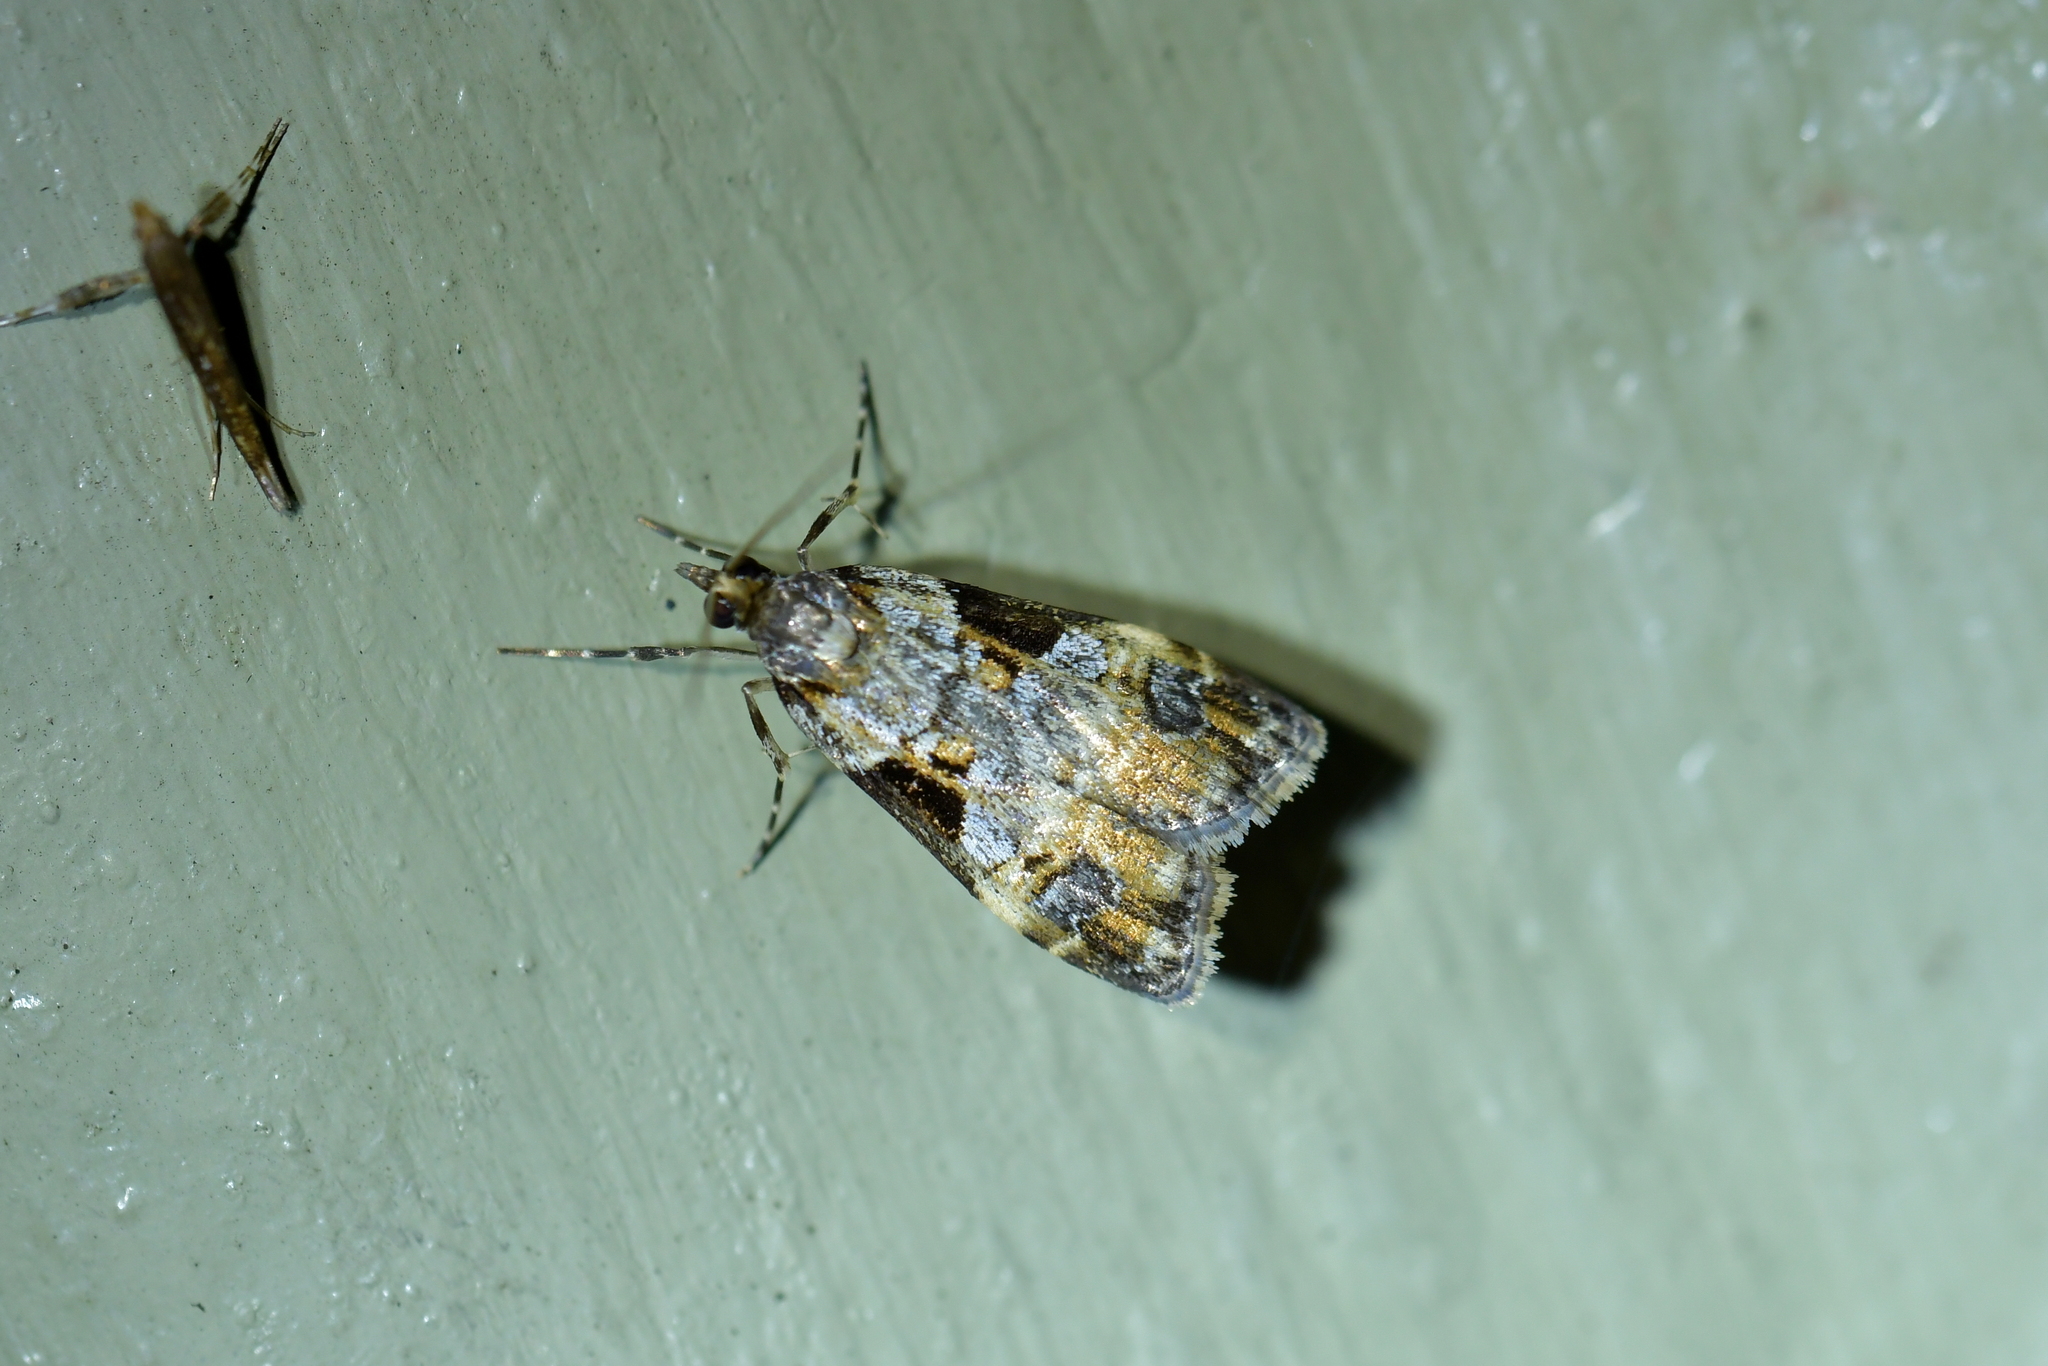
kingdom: Animalia
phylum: Arthropoda
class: Insecta
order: Lepidoptera
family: Crambidae
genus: Scoparia
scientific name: Scoparia acharis
